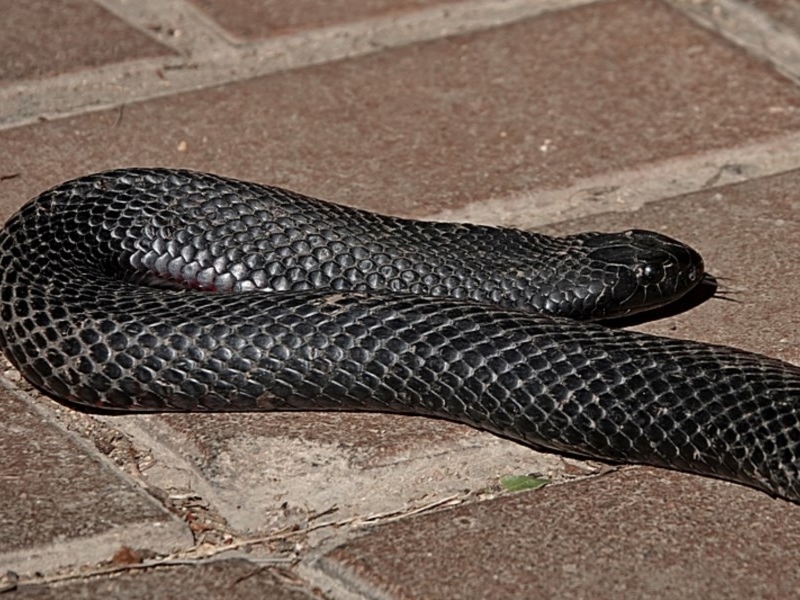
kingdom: Animalia
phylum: Chordata
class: Squamata
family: Elapidae
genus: Pseudechis
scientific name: Pseudechis porphyriacus
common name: Australian black snake
